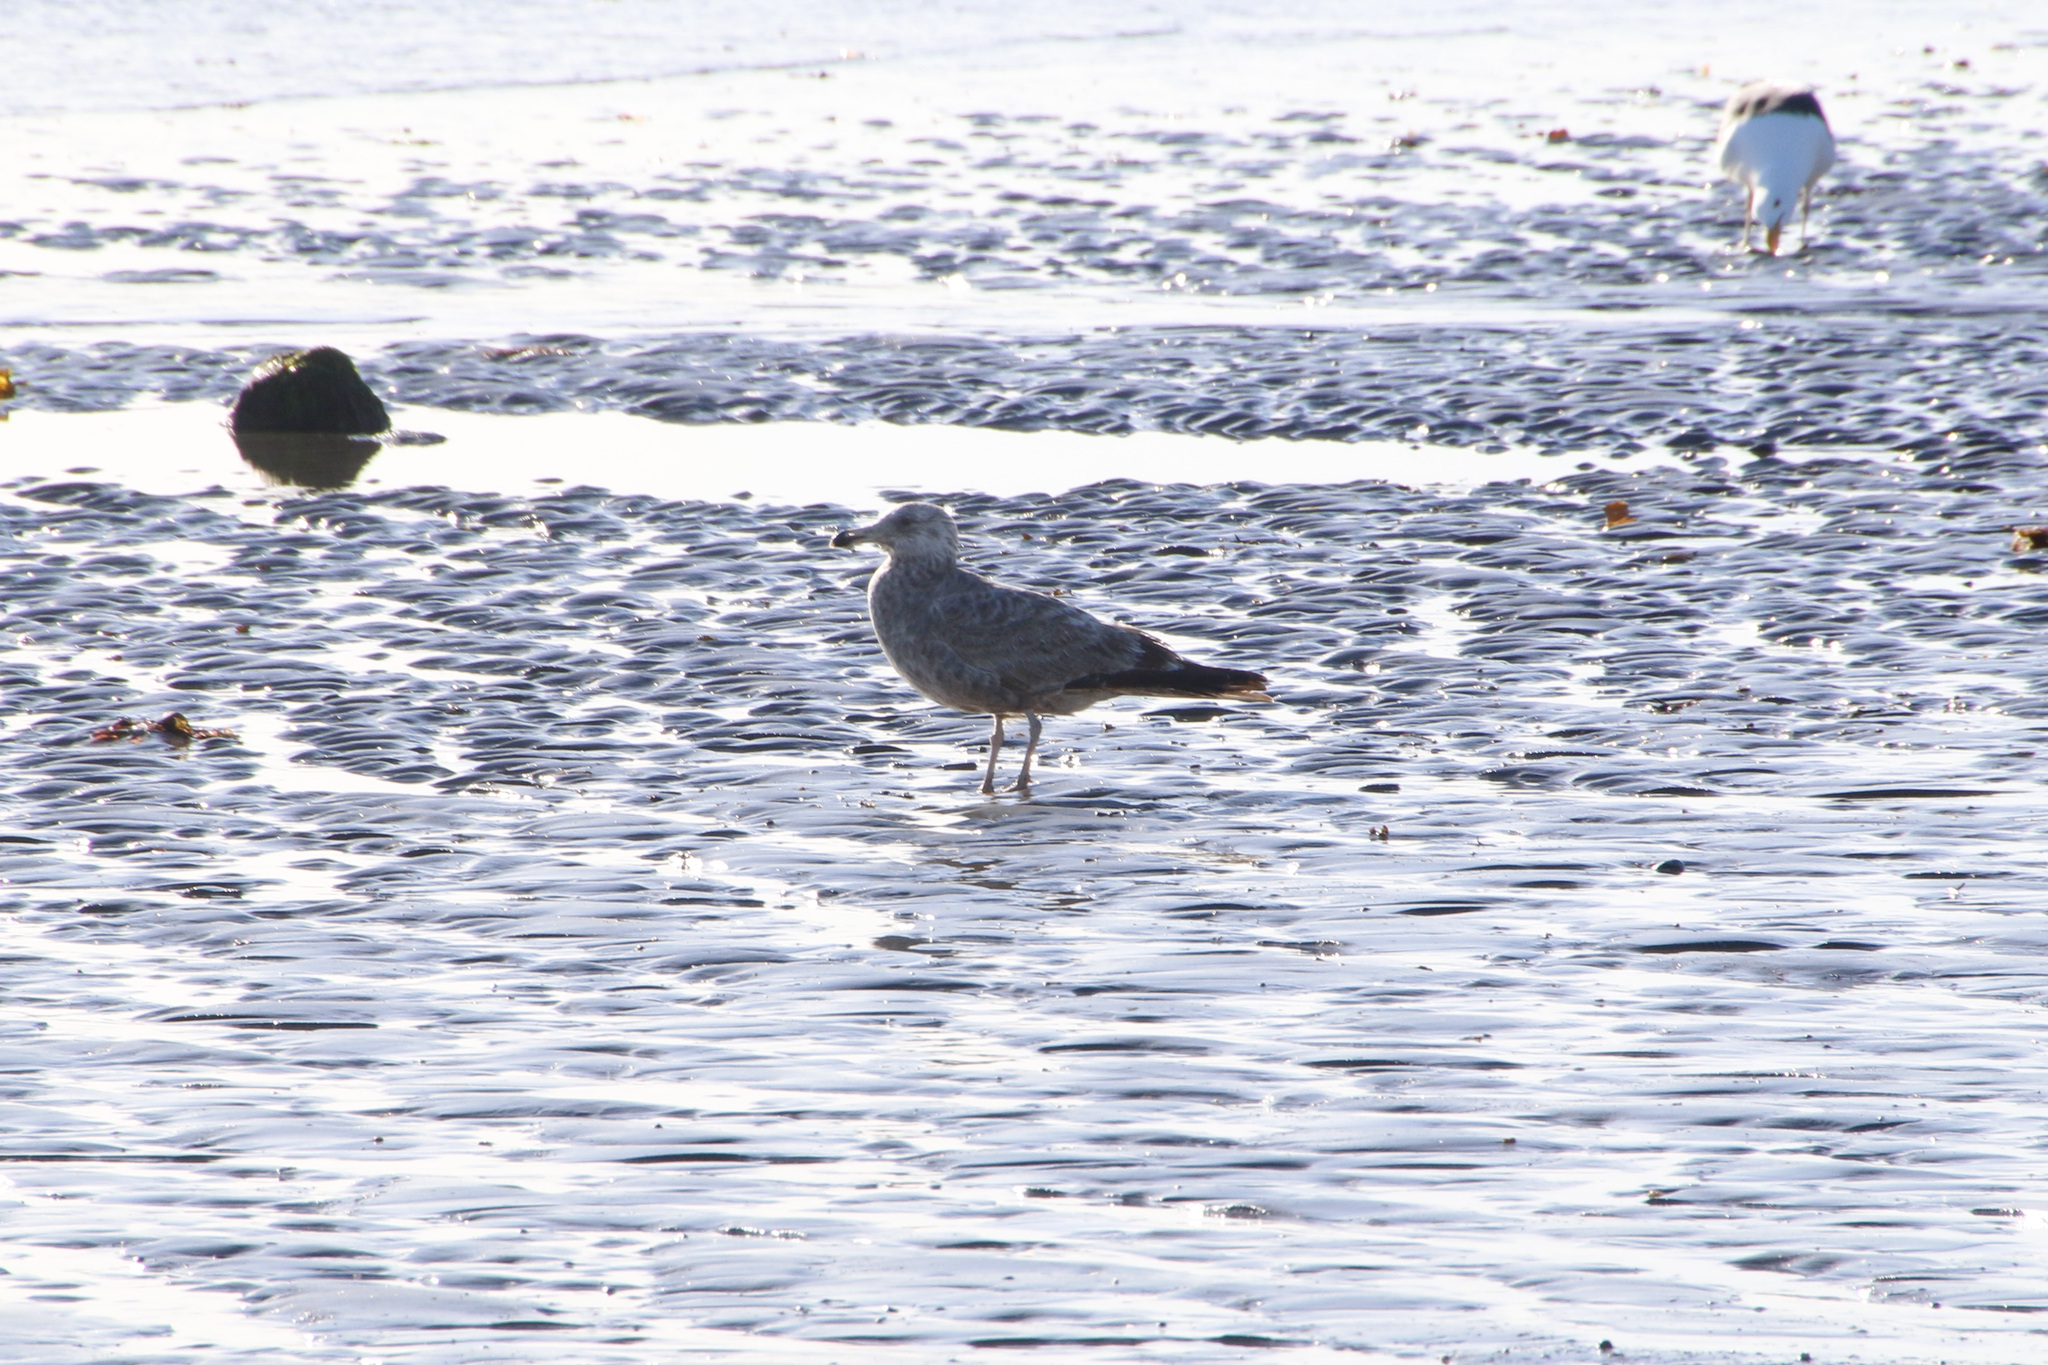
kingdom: Animalia
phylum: Chordata
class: Aves
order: Charadriiformes
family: Laridae
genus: Larus
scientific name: Larus argentatus
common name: Herring gull
